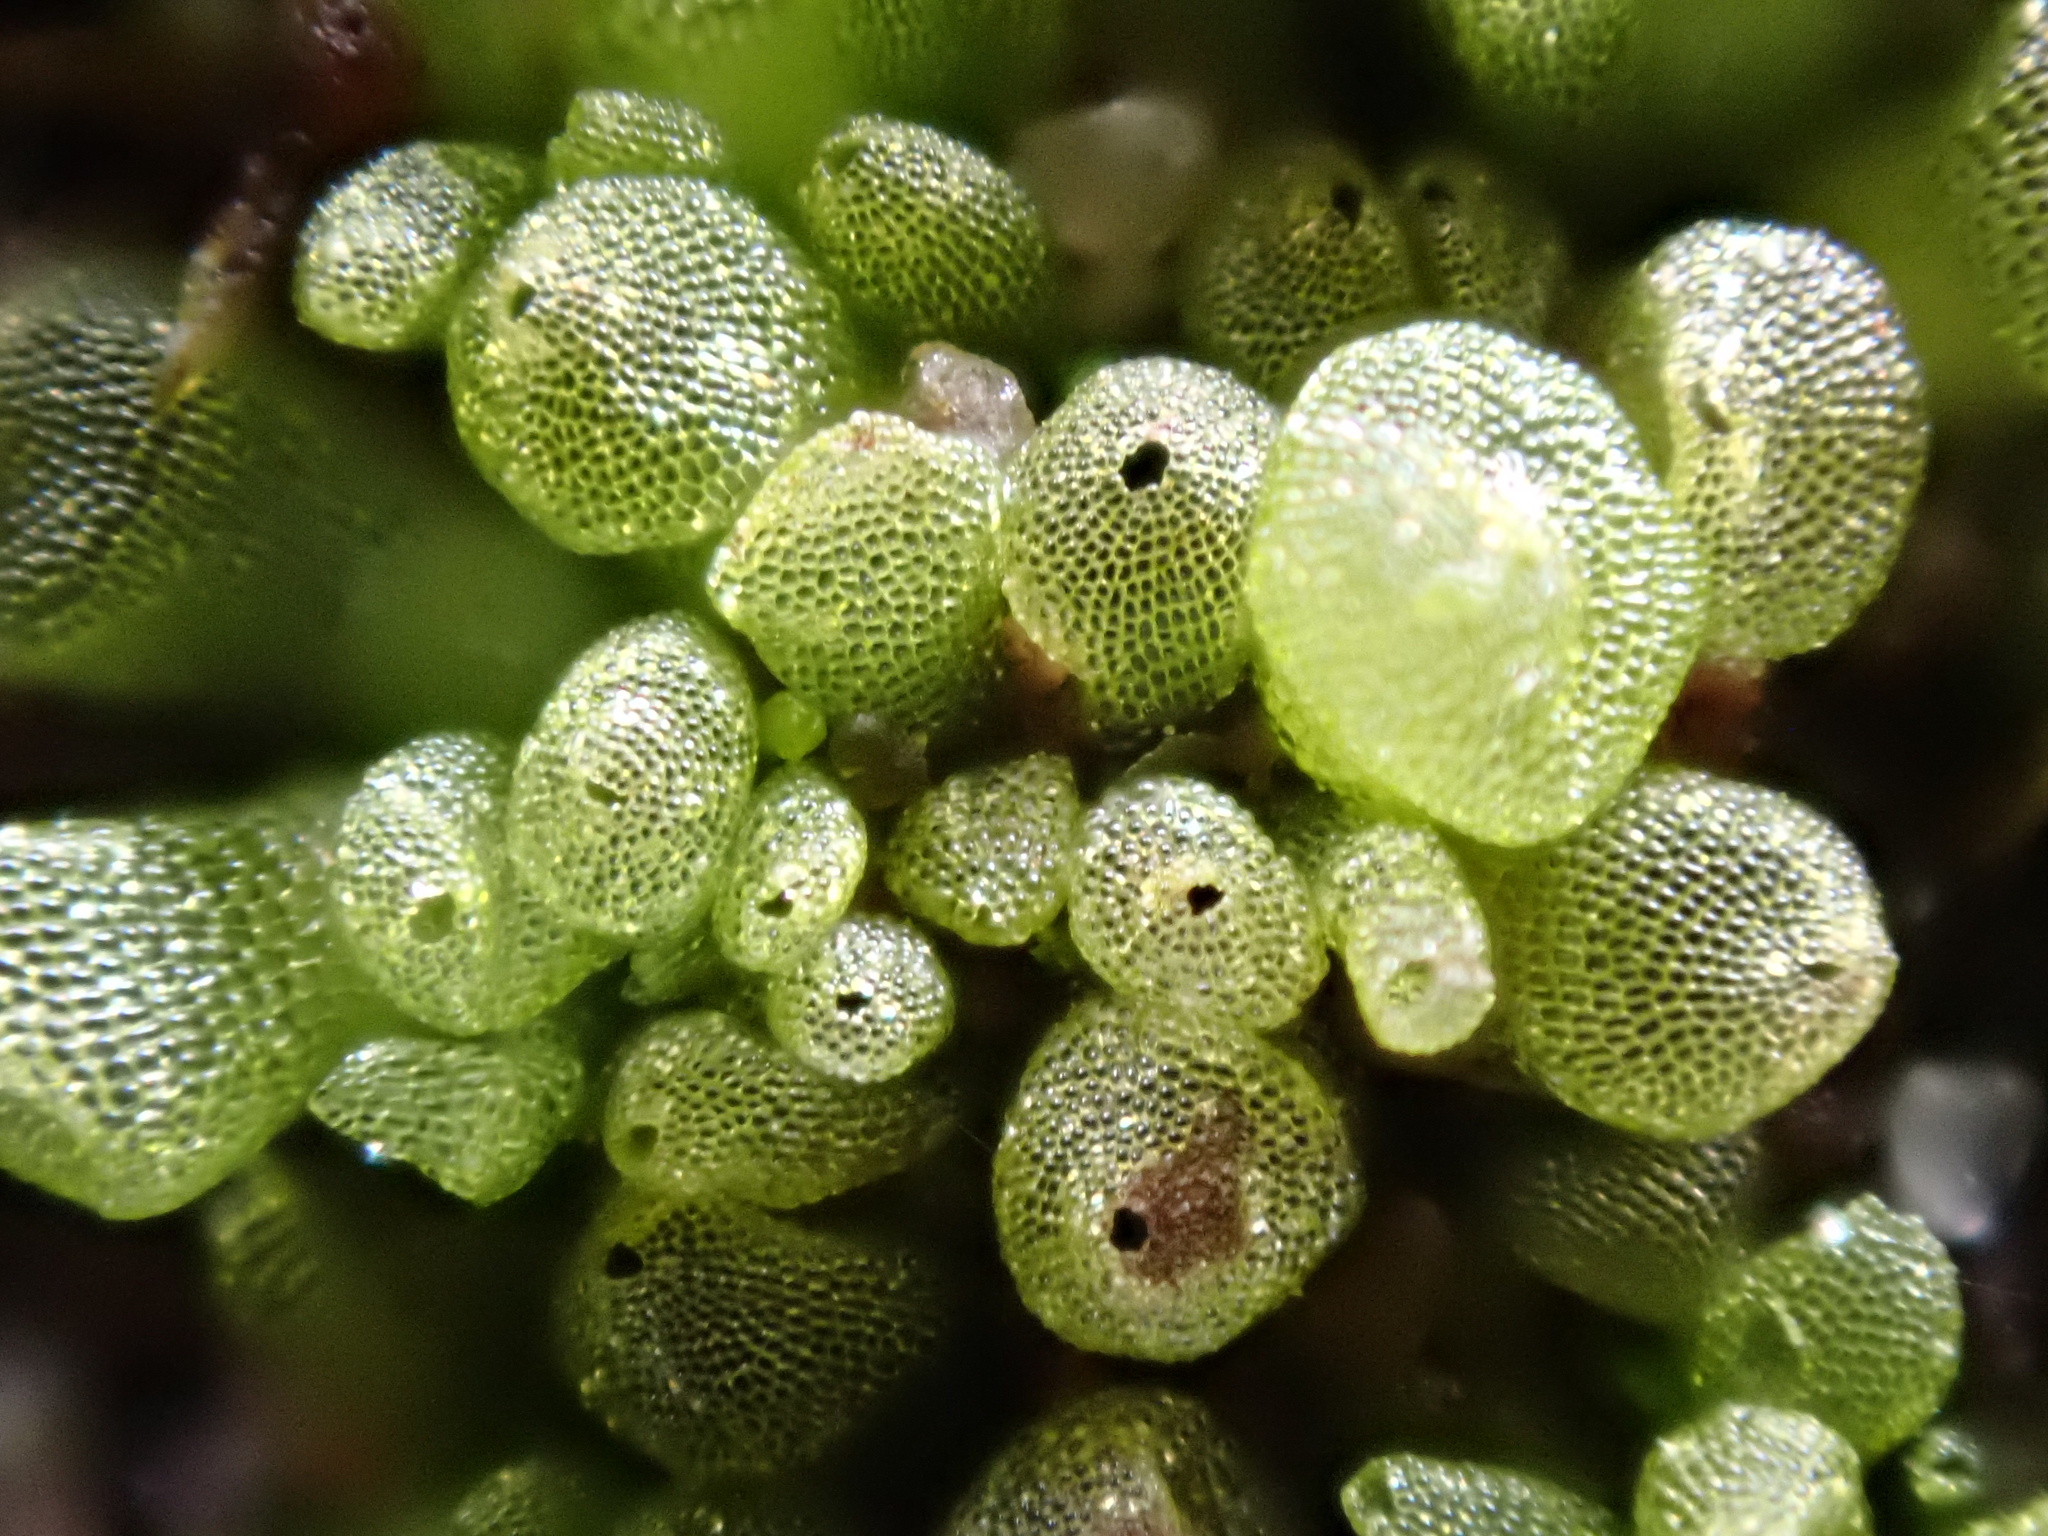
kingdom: Plantae
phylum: Marchantiophyta
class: Marchantiopsida
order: Sphaerocarpales
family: Sphaerocarpaceae
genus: Sphaerocarpos
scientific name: Sphaerocarpos michelii
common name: Micheli's balloonwort
